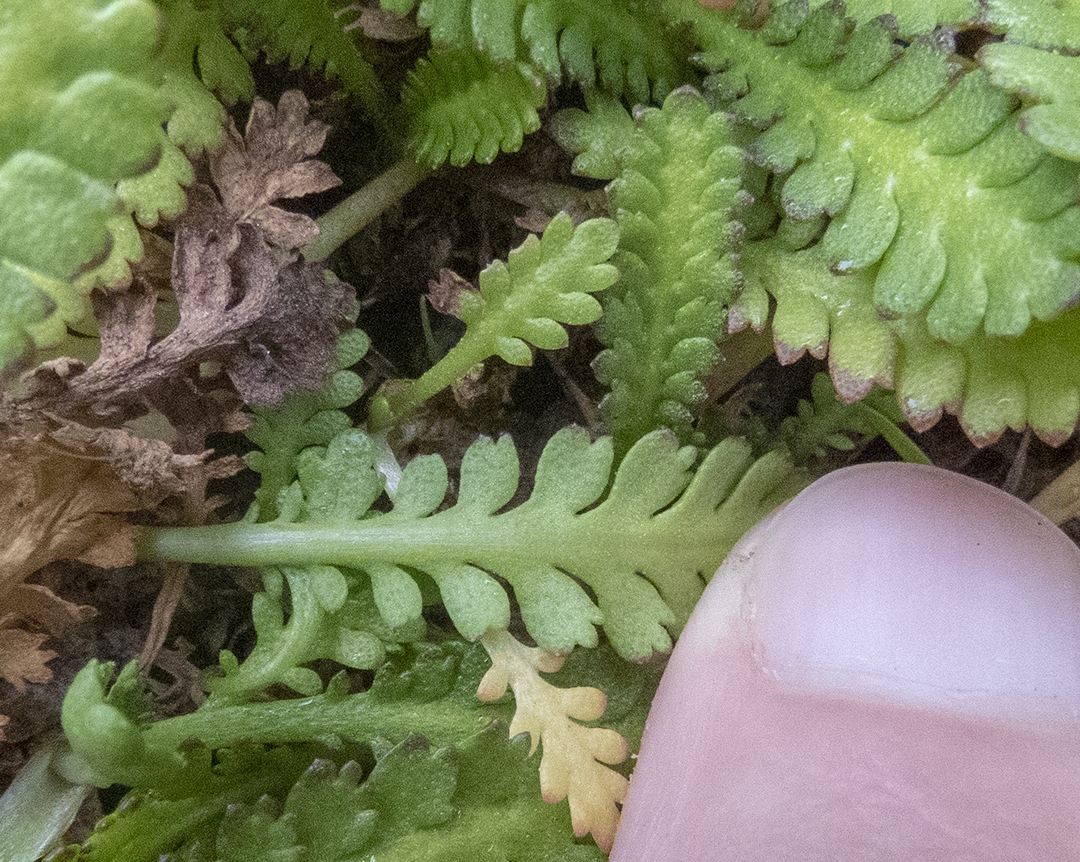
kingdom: Plantae
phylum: Tracheophyta
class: Magnoliopsida
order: Asterales
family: Asteraceae
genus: Leptinella
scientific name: Leptinella dioica
